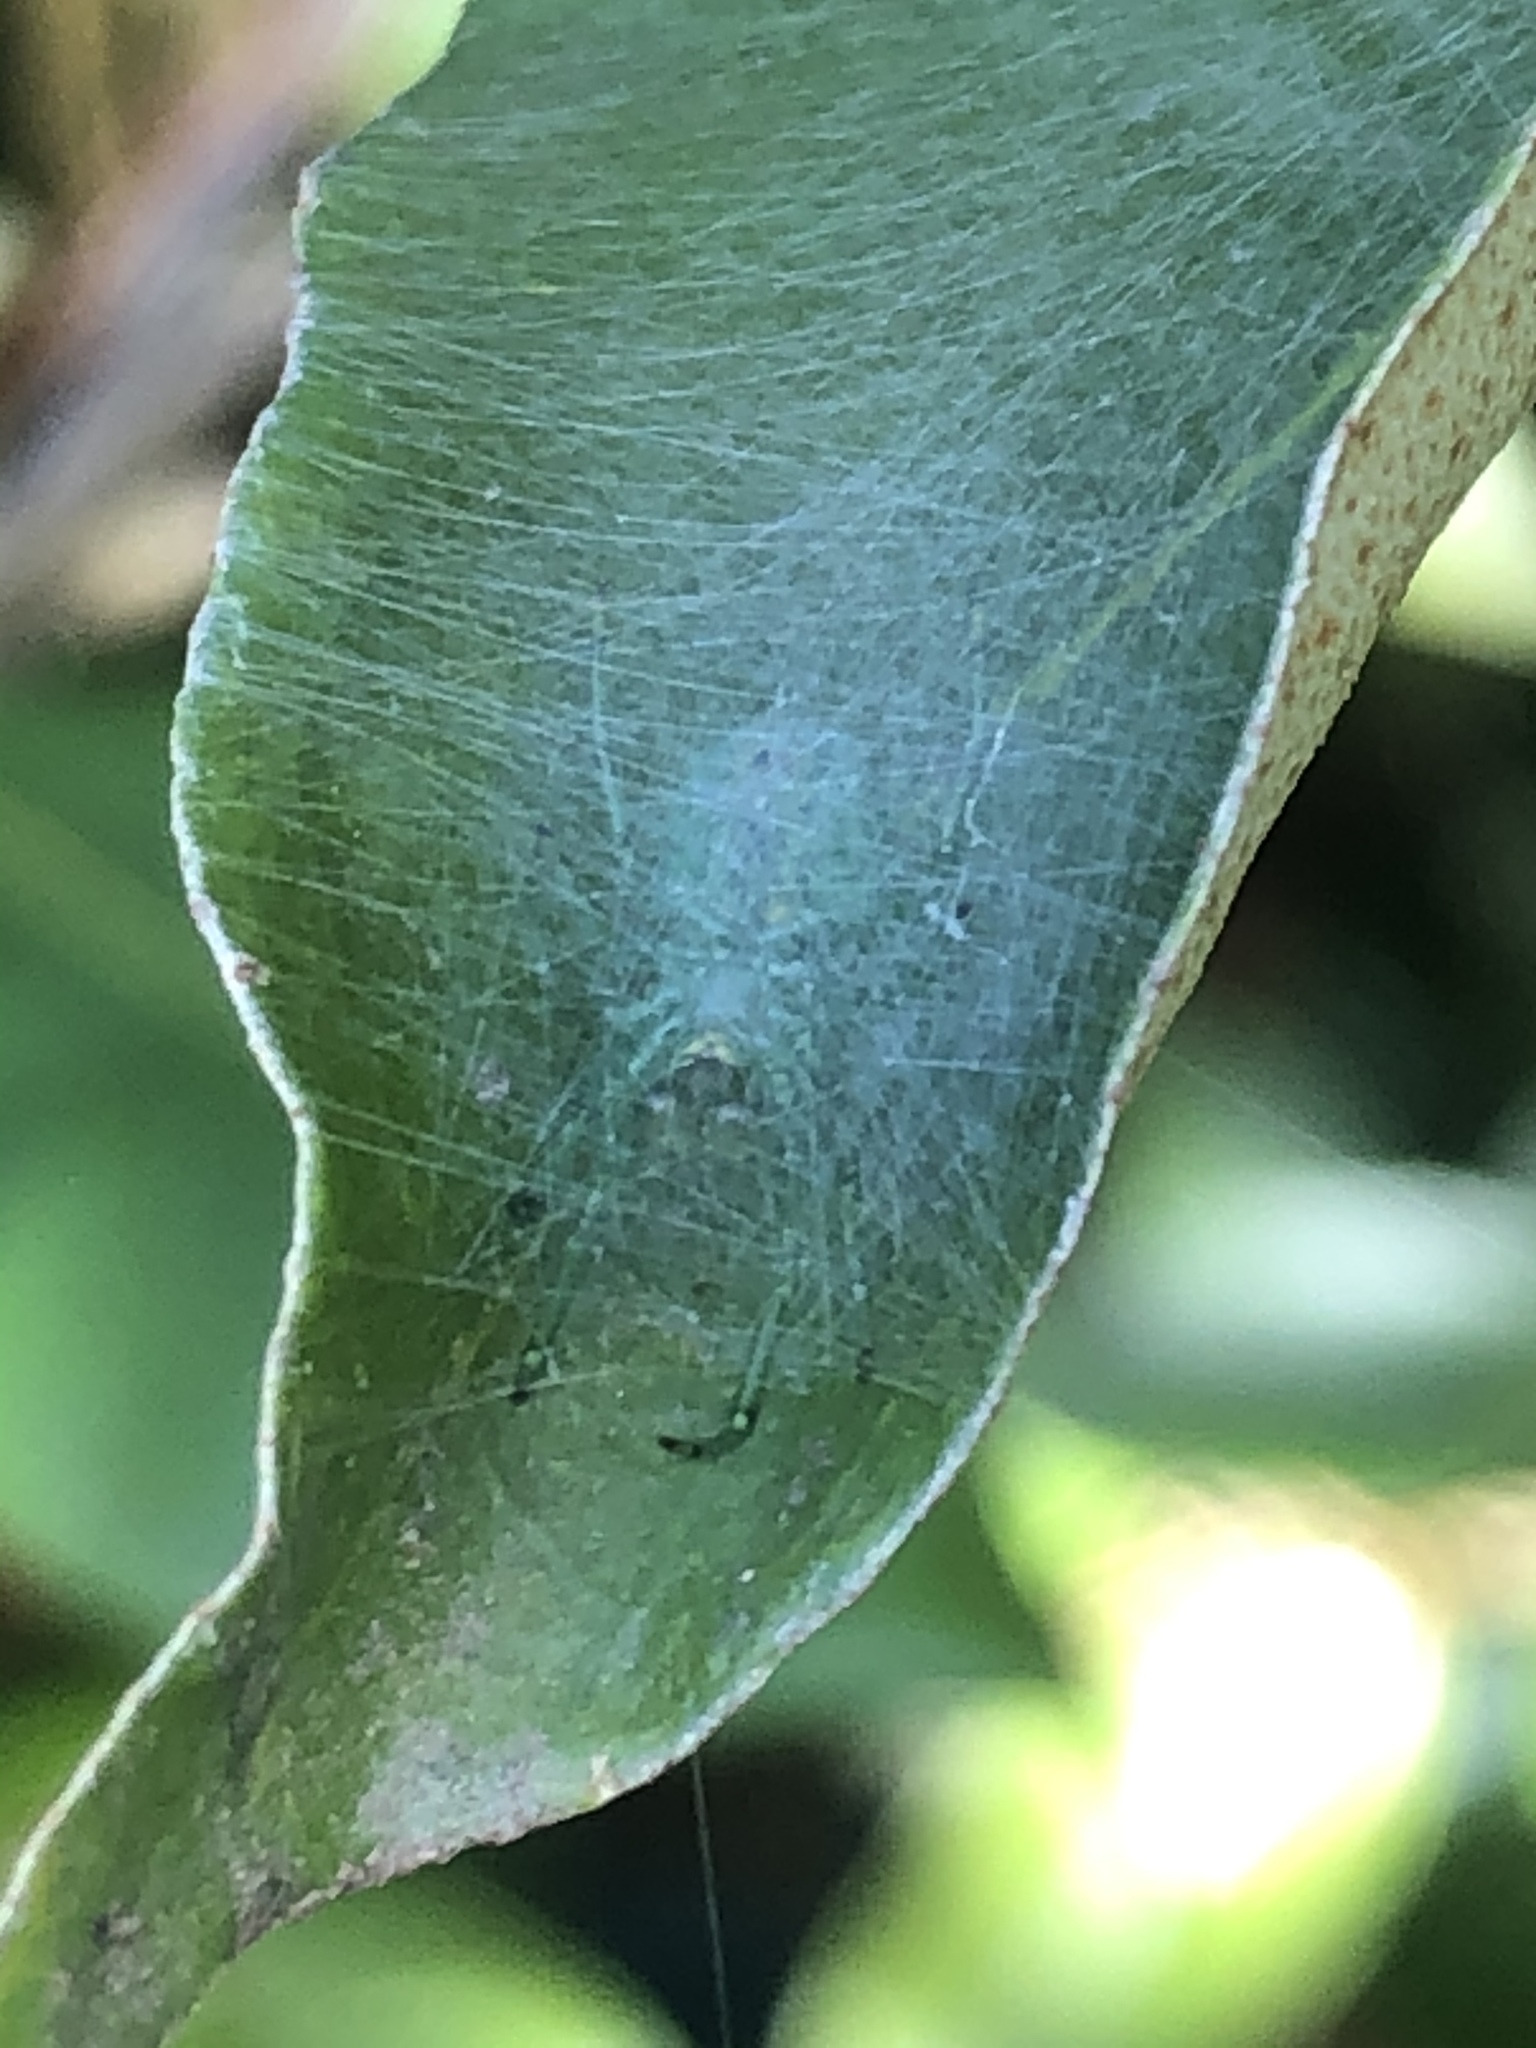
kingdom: Animalia
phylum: Arthropoda
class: Arachnida
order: Araneae
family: Araneidae
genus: Bijoaraneus
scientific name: Bijoaraneus praesignis
